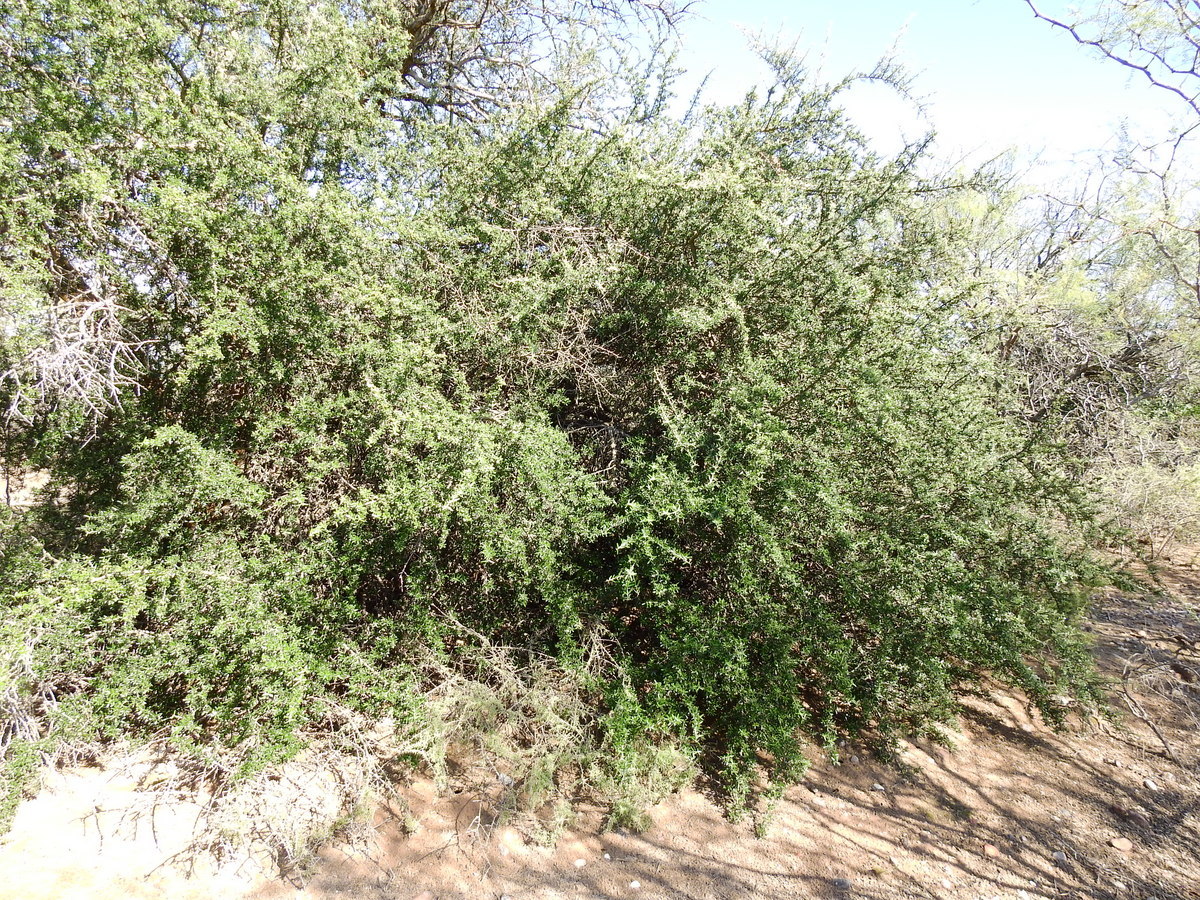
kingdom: Plantae
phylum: Tracheophyta
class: Magnoliopsida
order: Brassicales
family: Capparaceae
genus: Atamisquea
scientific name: Atamisquea emarginata
